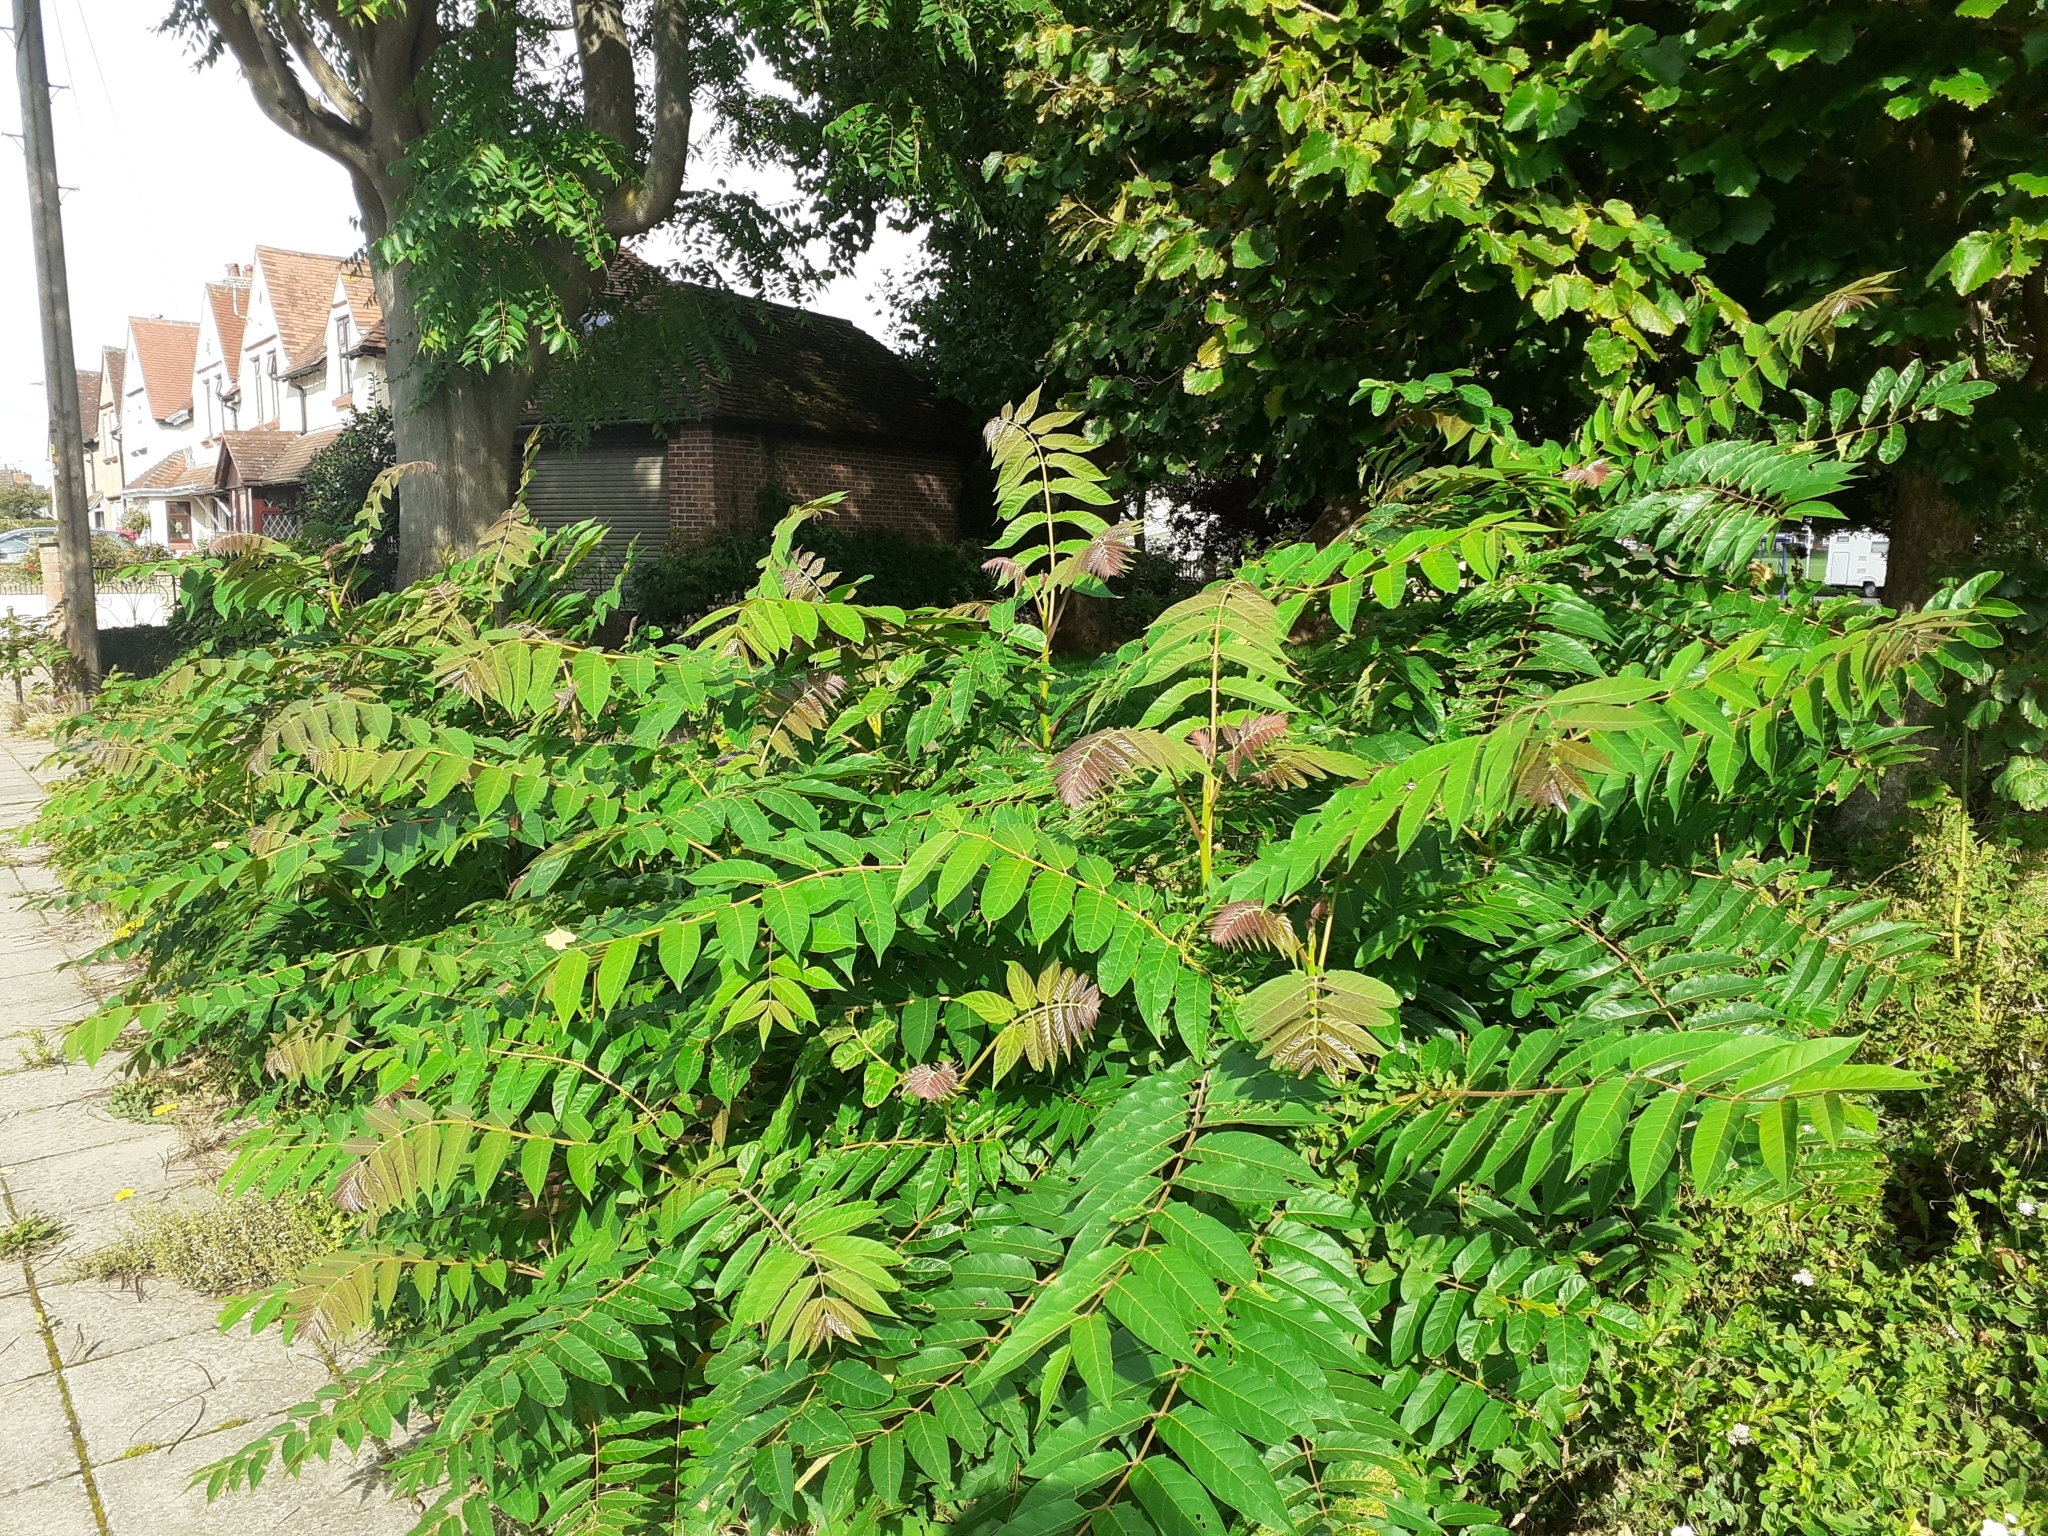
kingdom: Plantae
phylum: Tracheophyta
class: Magnoliopsida
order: Sapindales
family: Simaroubaceae
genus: Ailanthus
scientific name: Ailanthus altissima
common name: Tree-of-heaven
